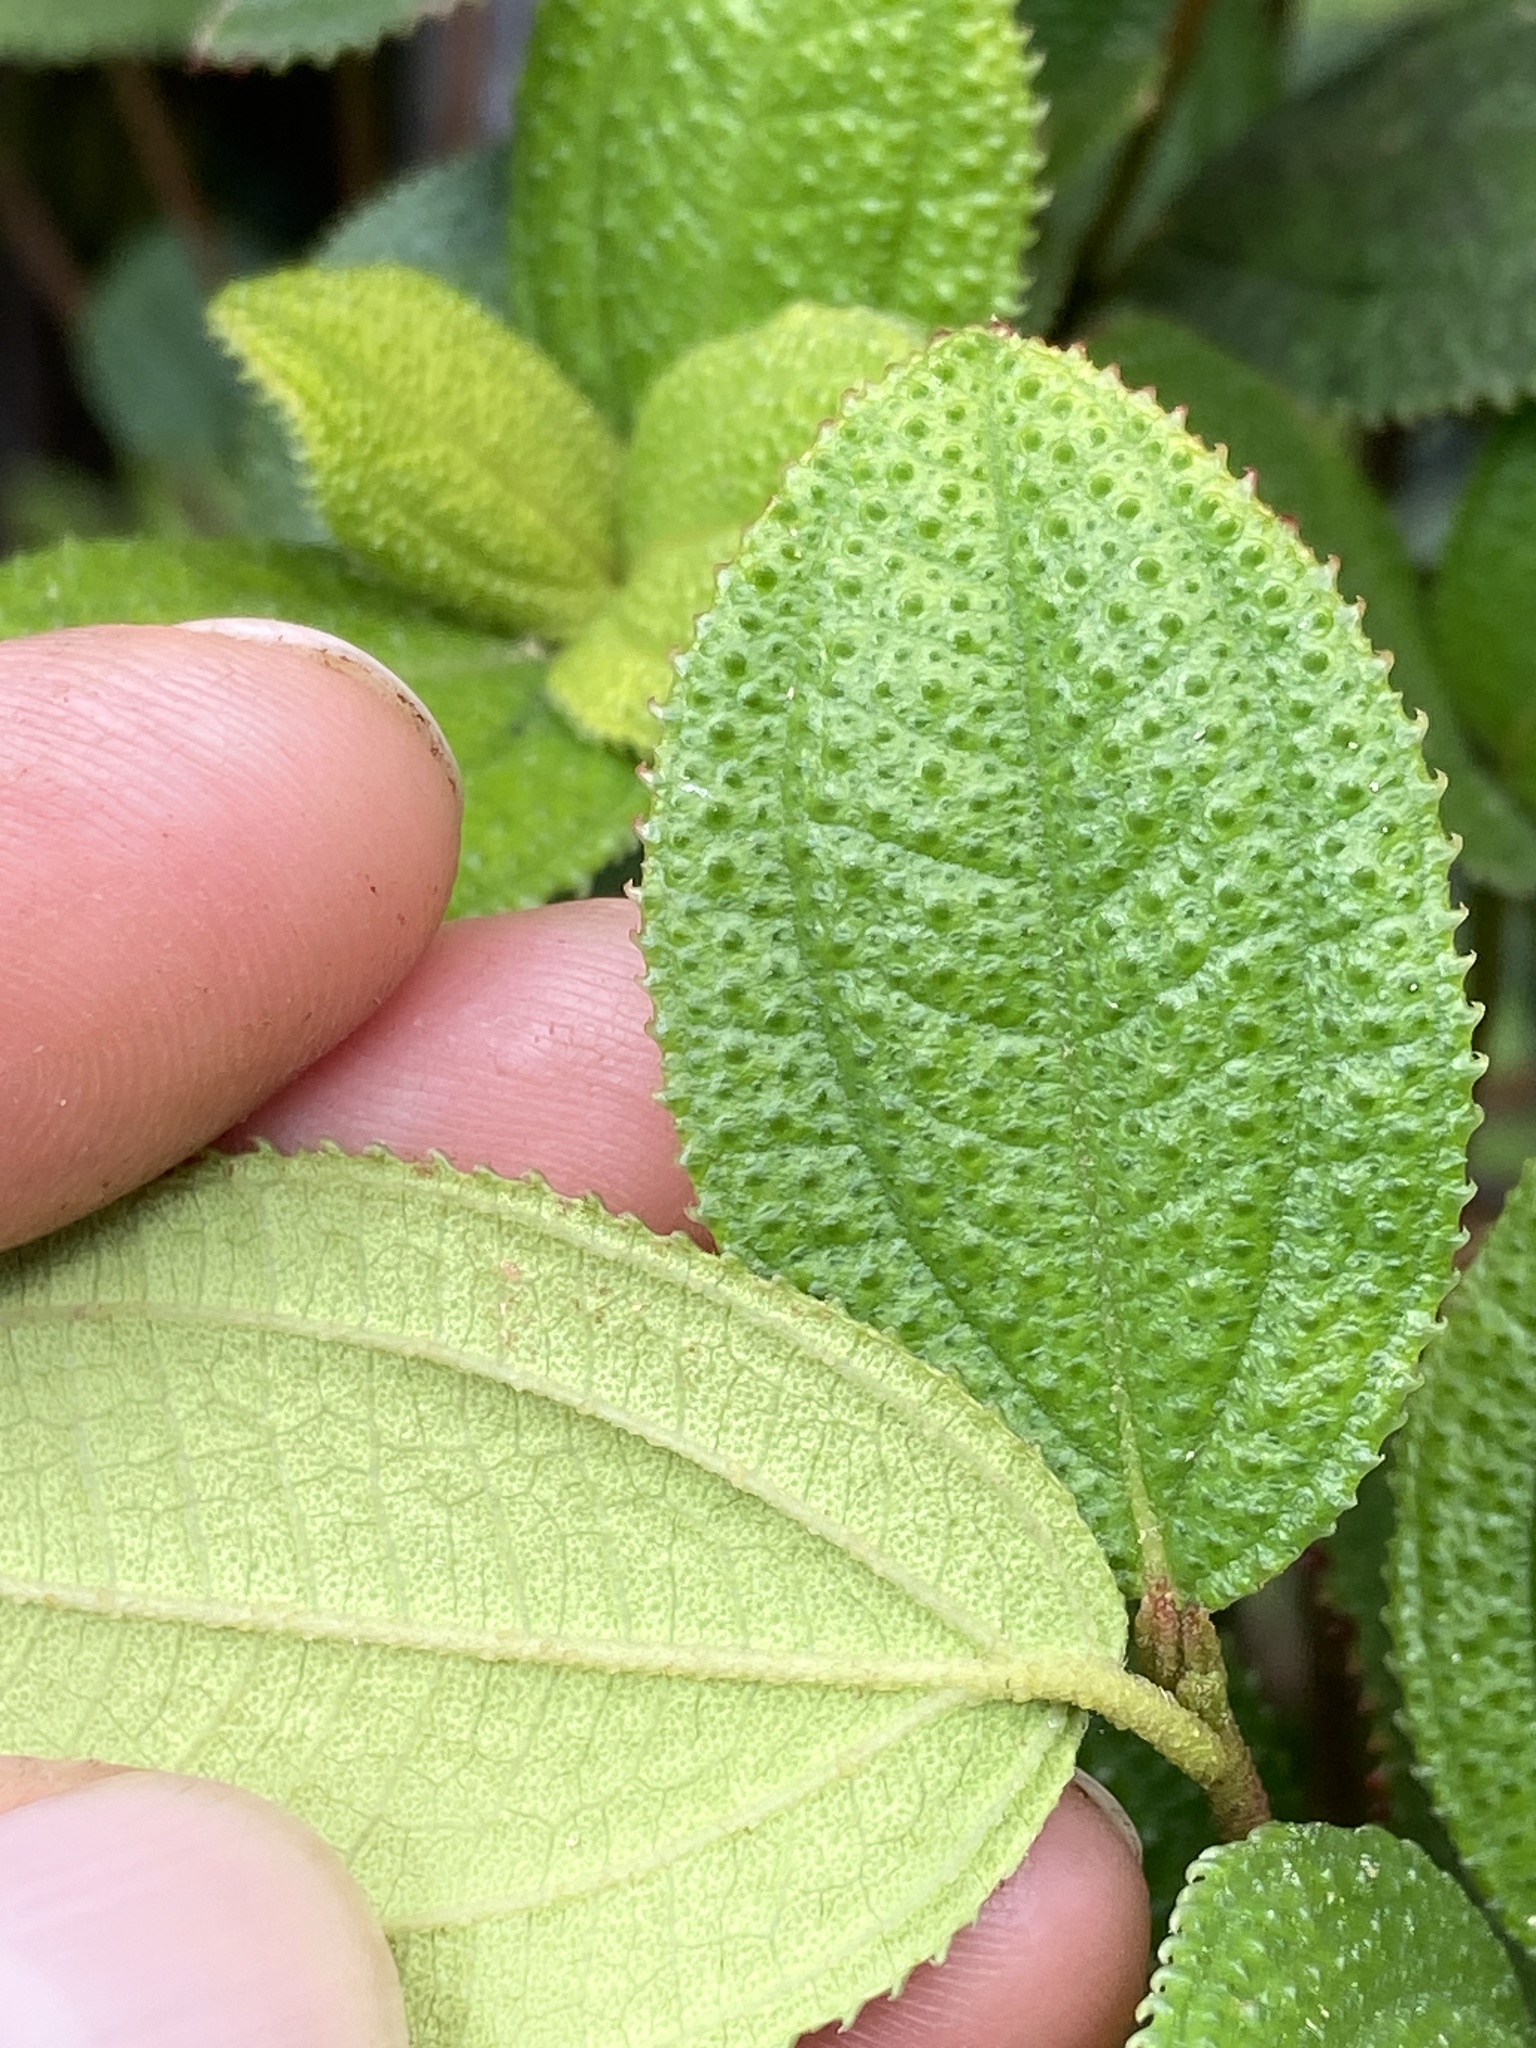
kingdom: Plantae
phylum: Tracheophyta
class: Magnoliopsida
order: Myrtales
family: Melastomataceae
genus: Miconia
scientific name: Miconia karlkrugii
